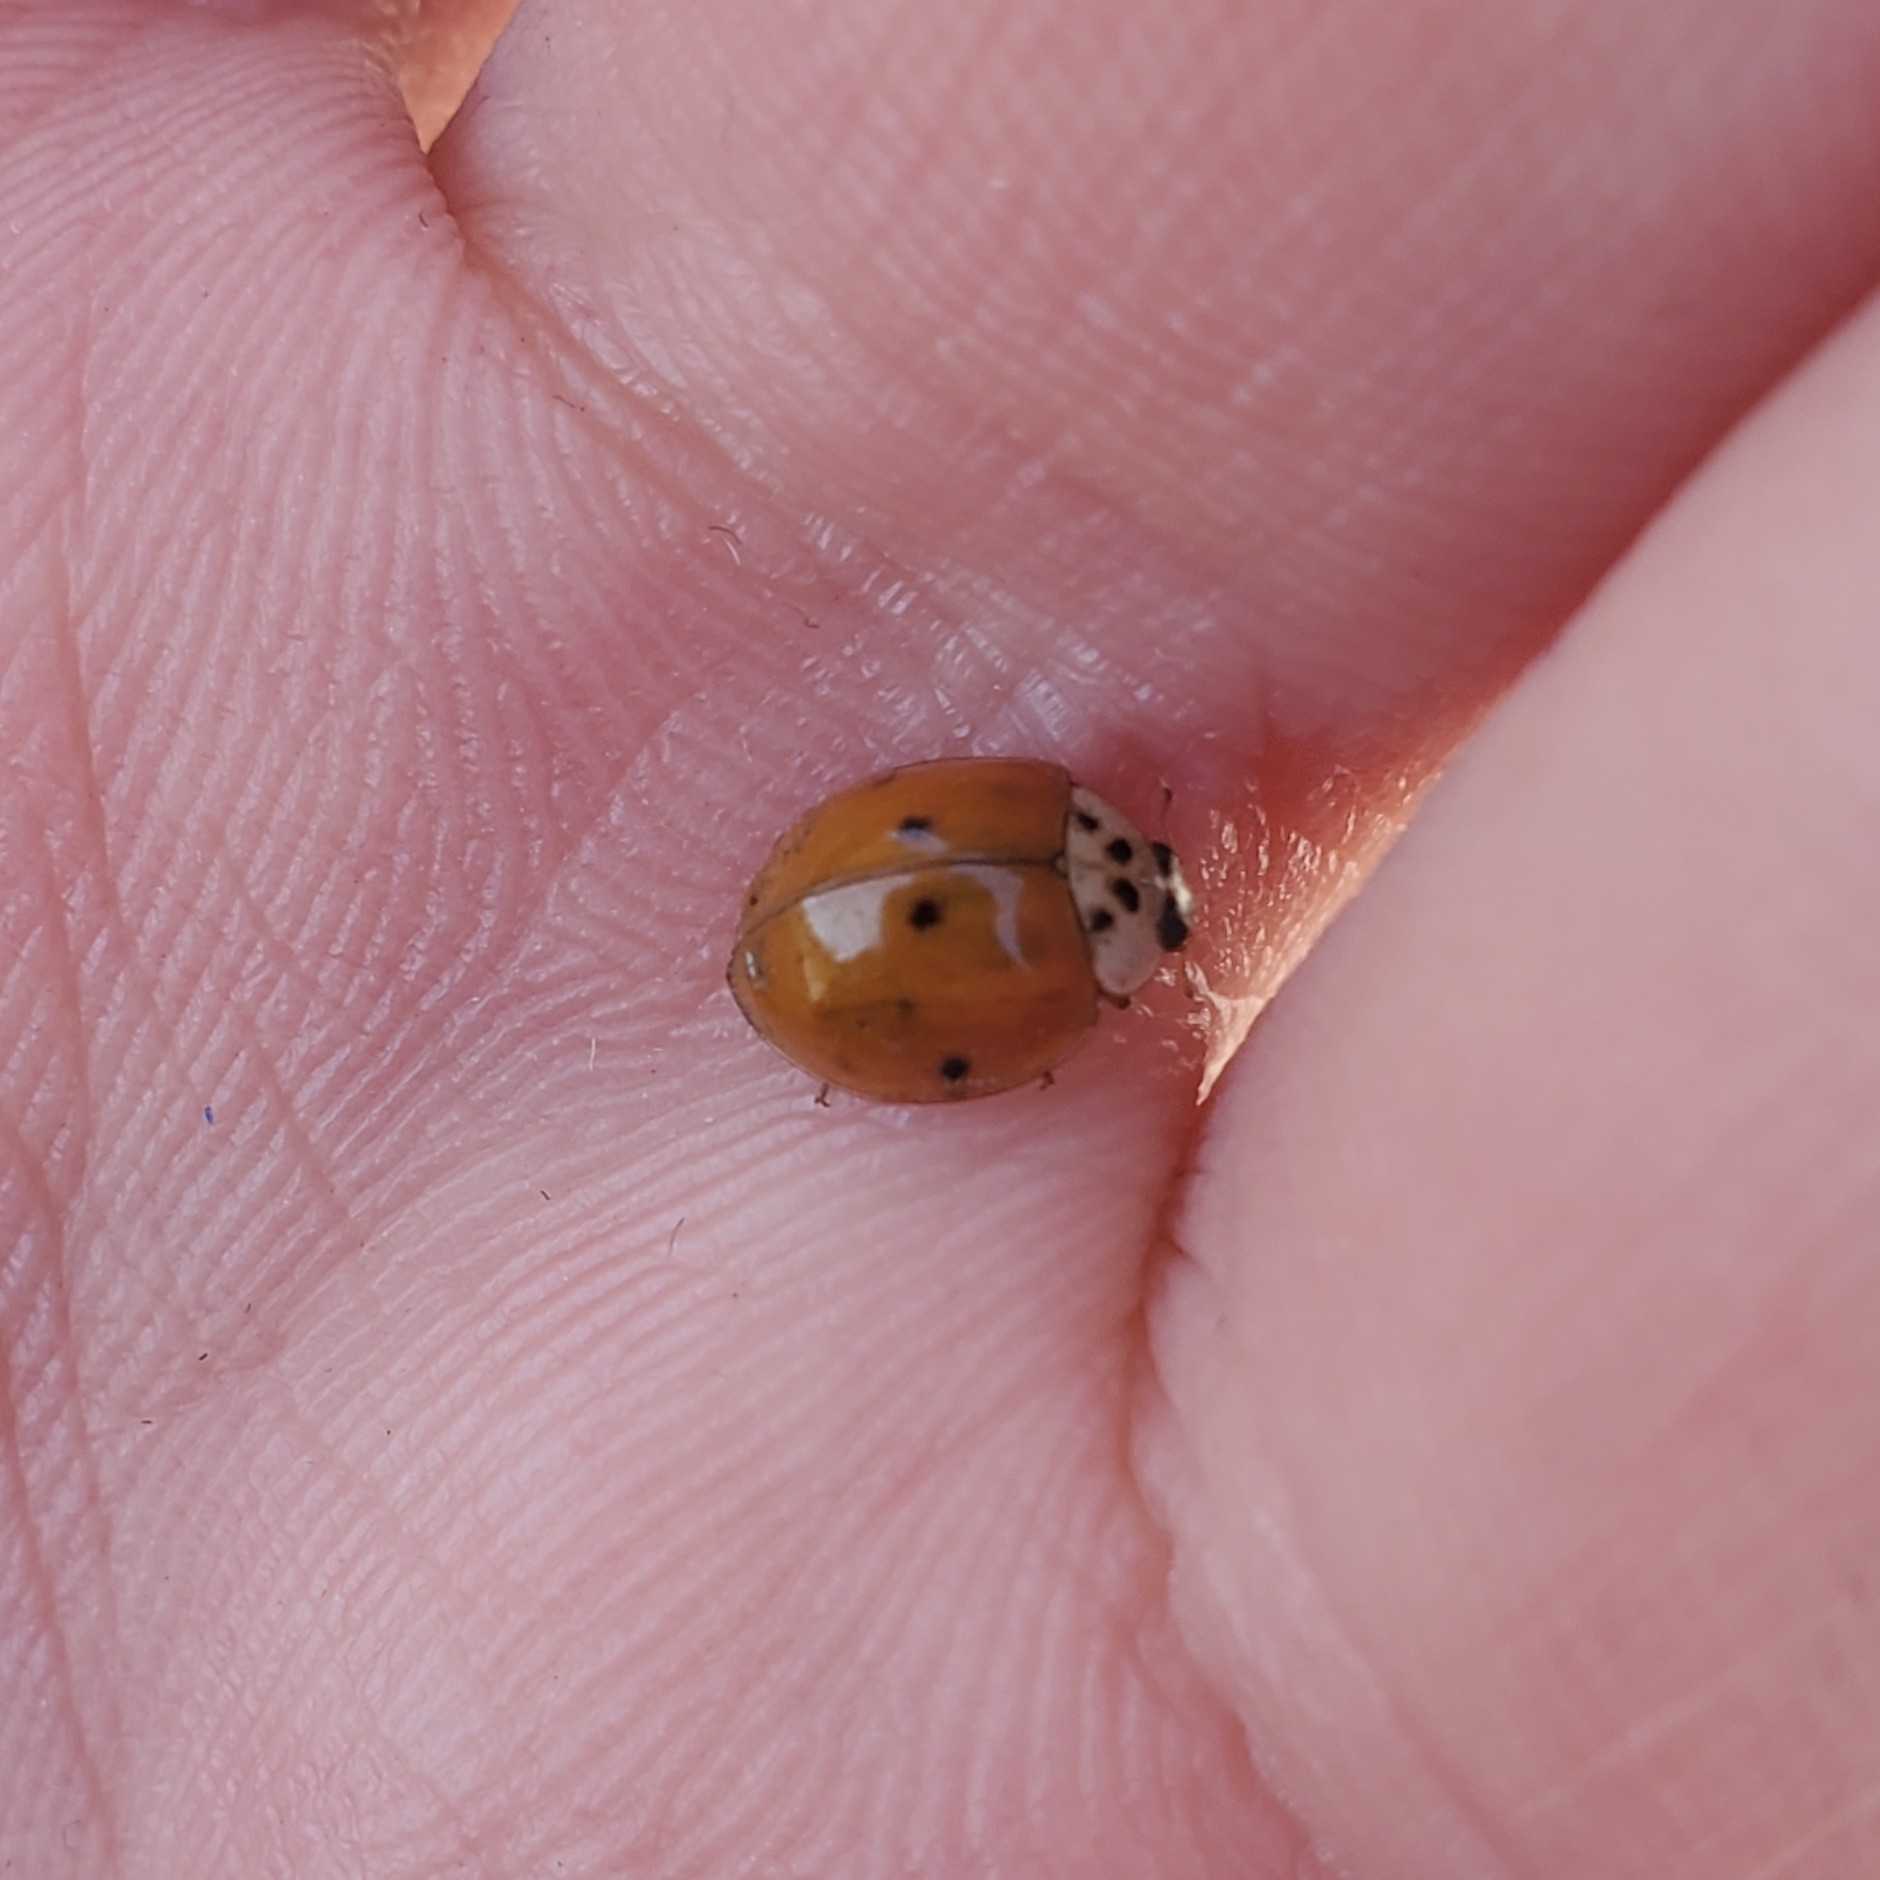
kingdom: Animalia
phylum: Arthropoda
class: Insecta
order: Coleoptera
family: Coccinellidae
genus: Harmonia
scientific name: Harmonia axyridis
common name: Harlequin ladybird
